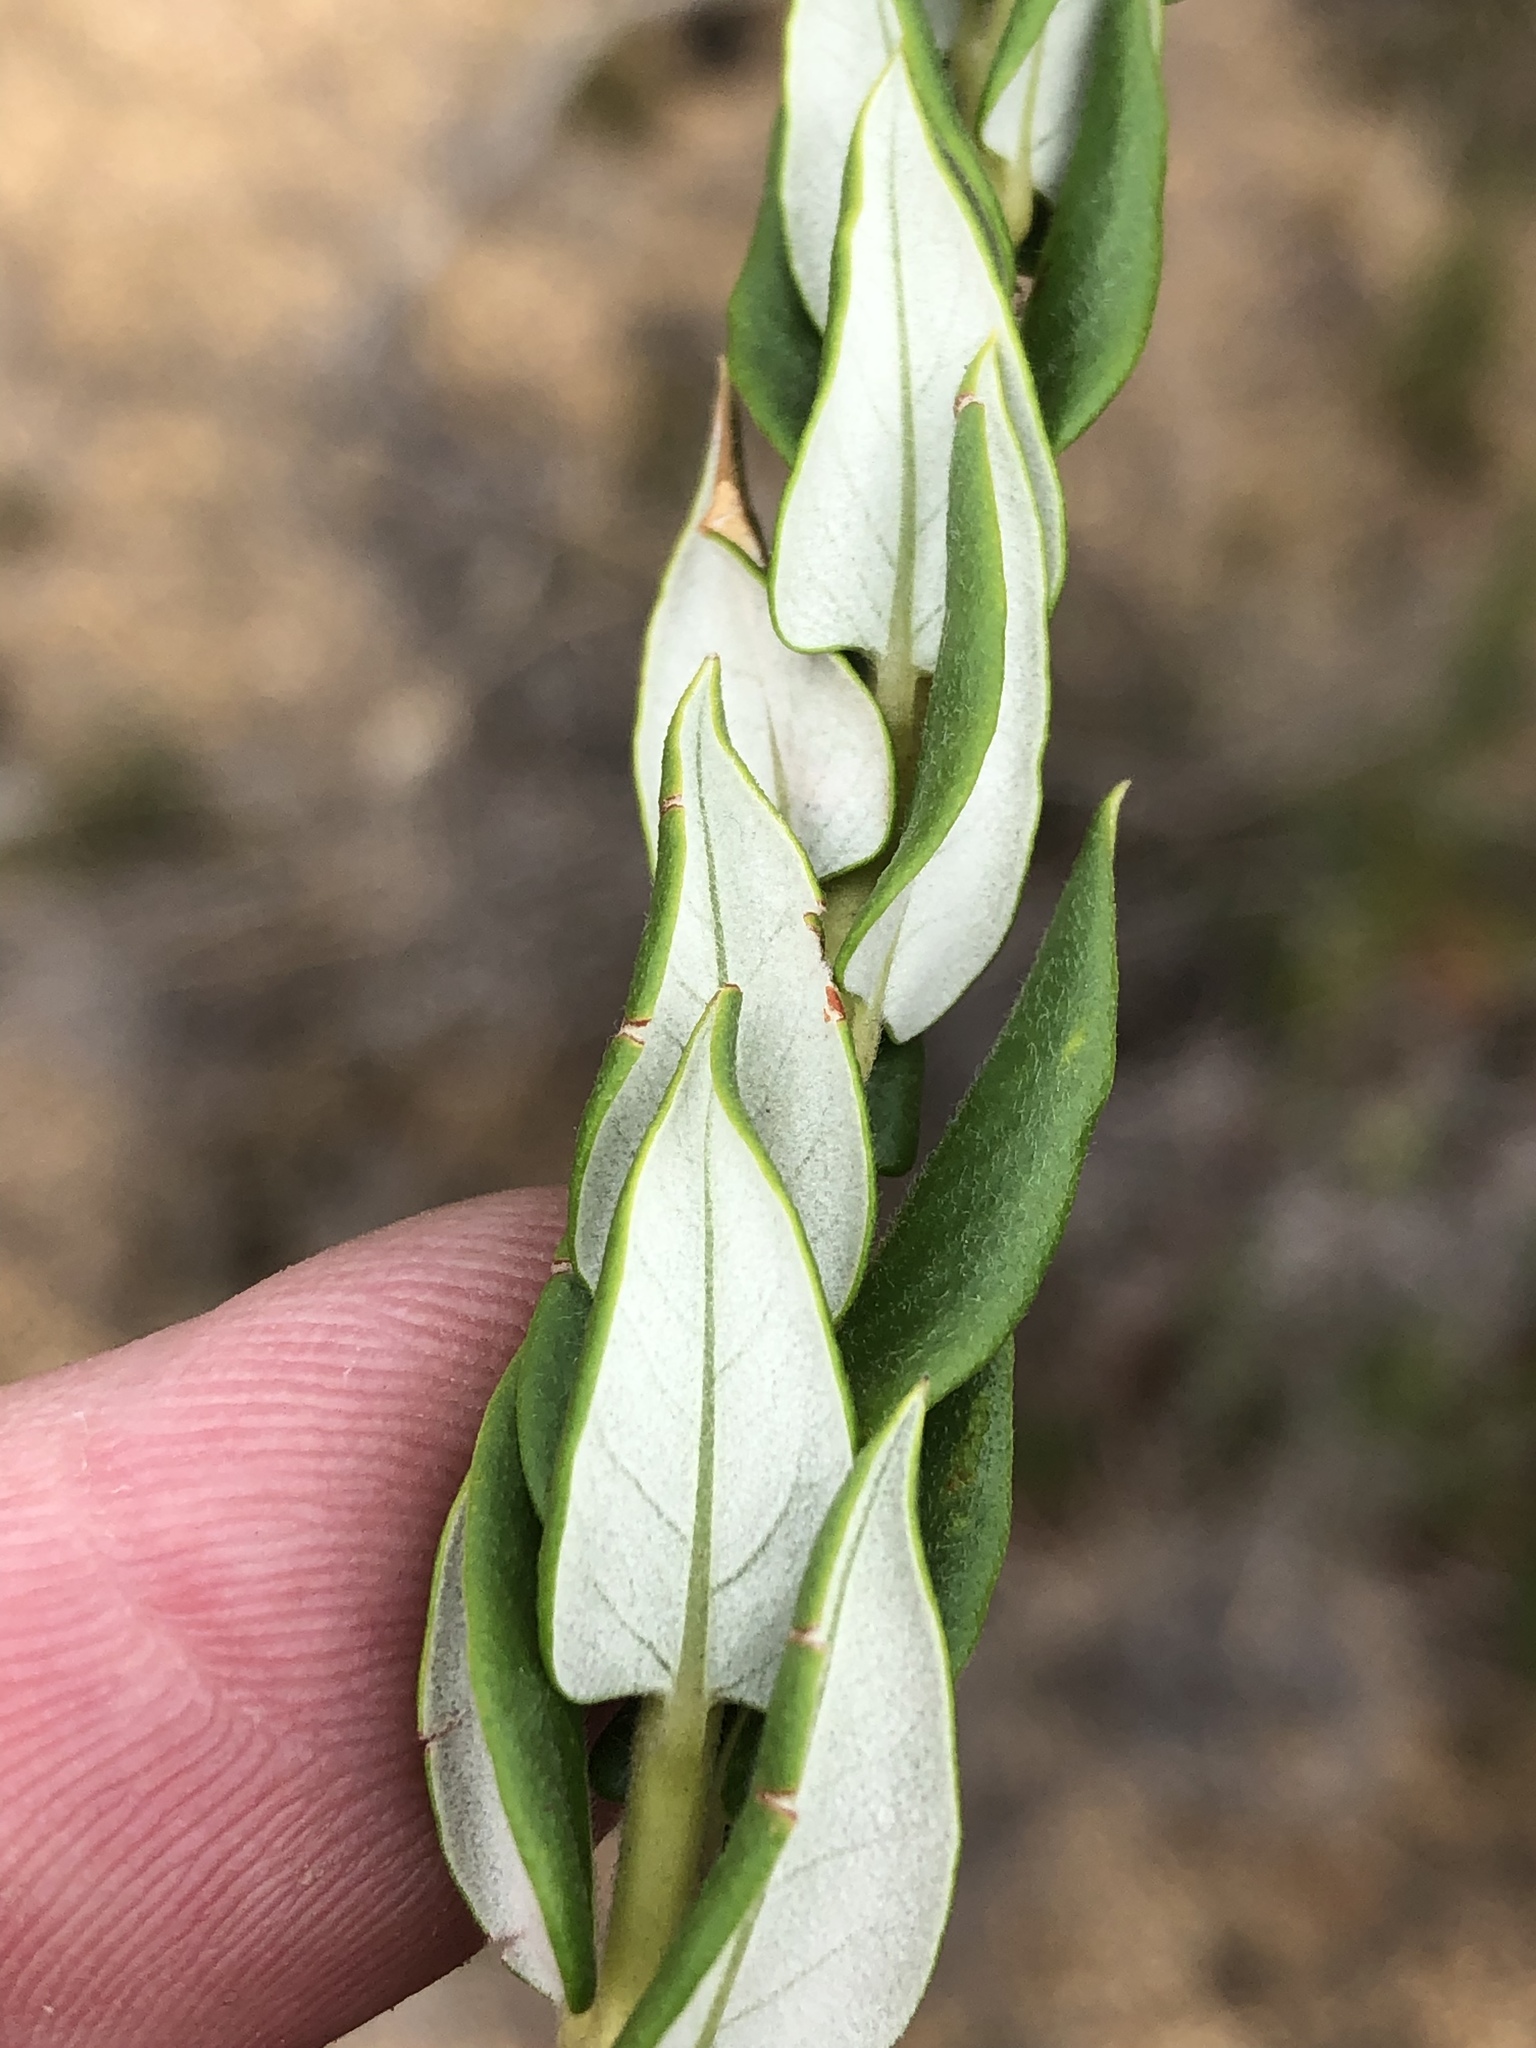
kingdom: Plantae
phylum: Tracheophyta
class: Magnoliopsida
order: Rosales
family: Rhamnaceae
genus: Phylica
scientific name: Phylica spicata
